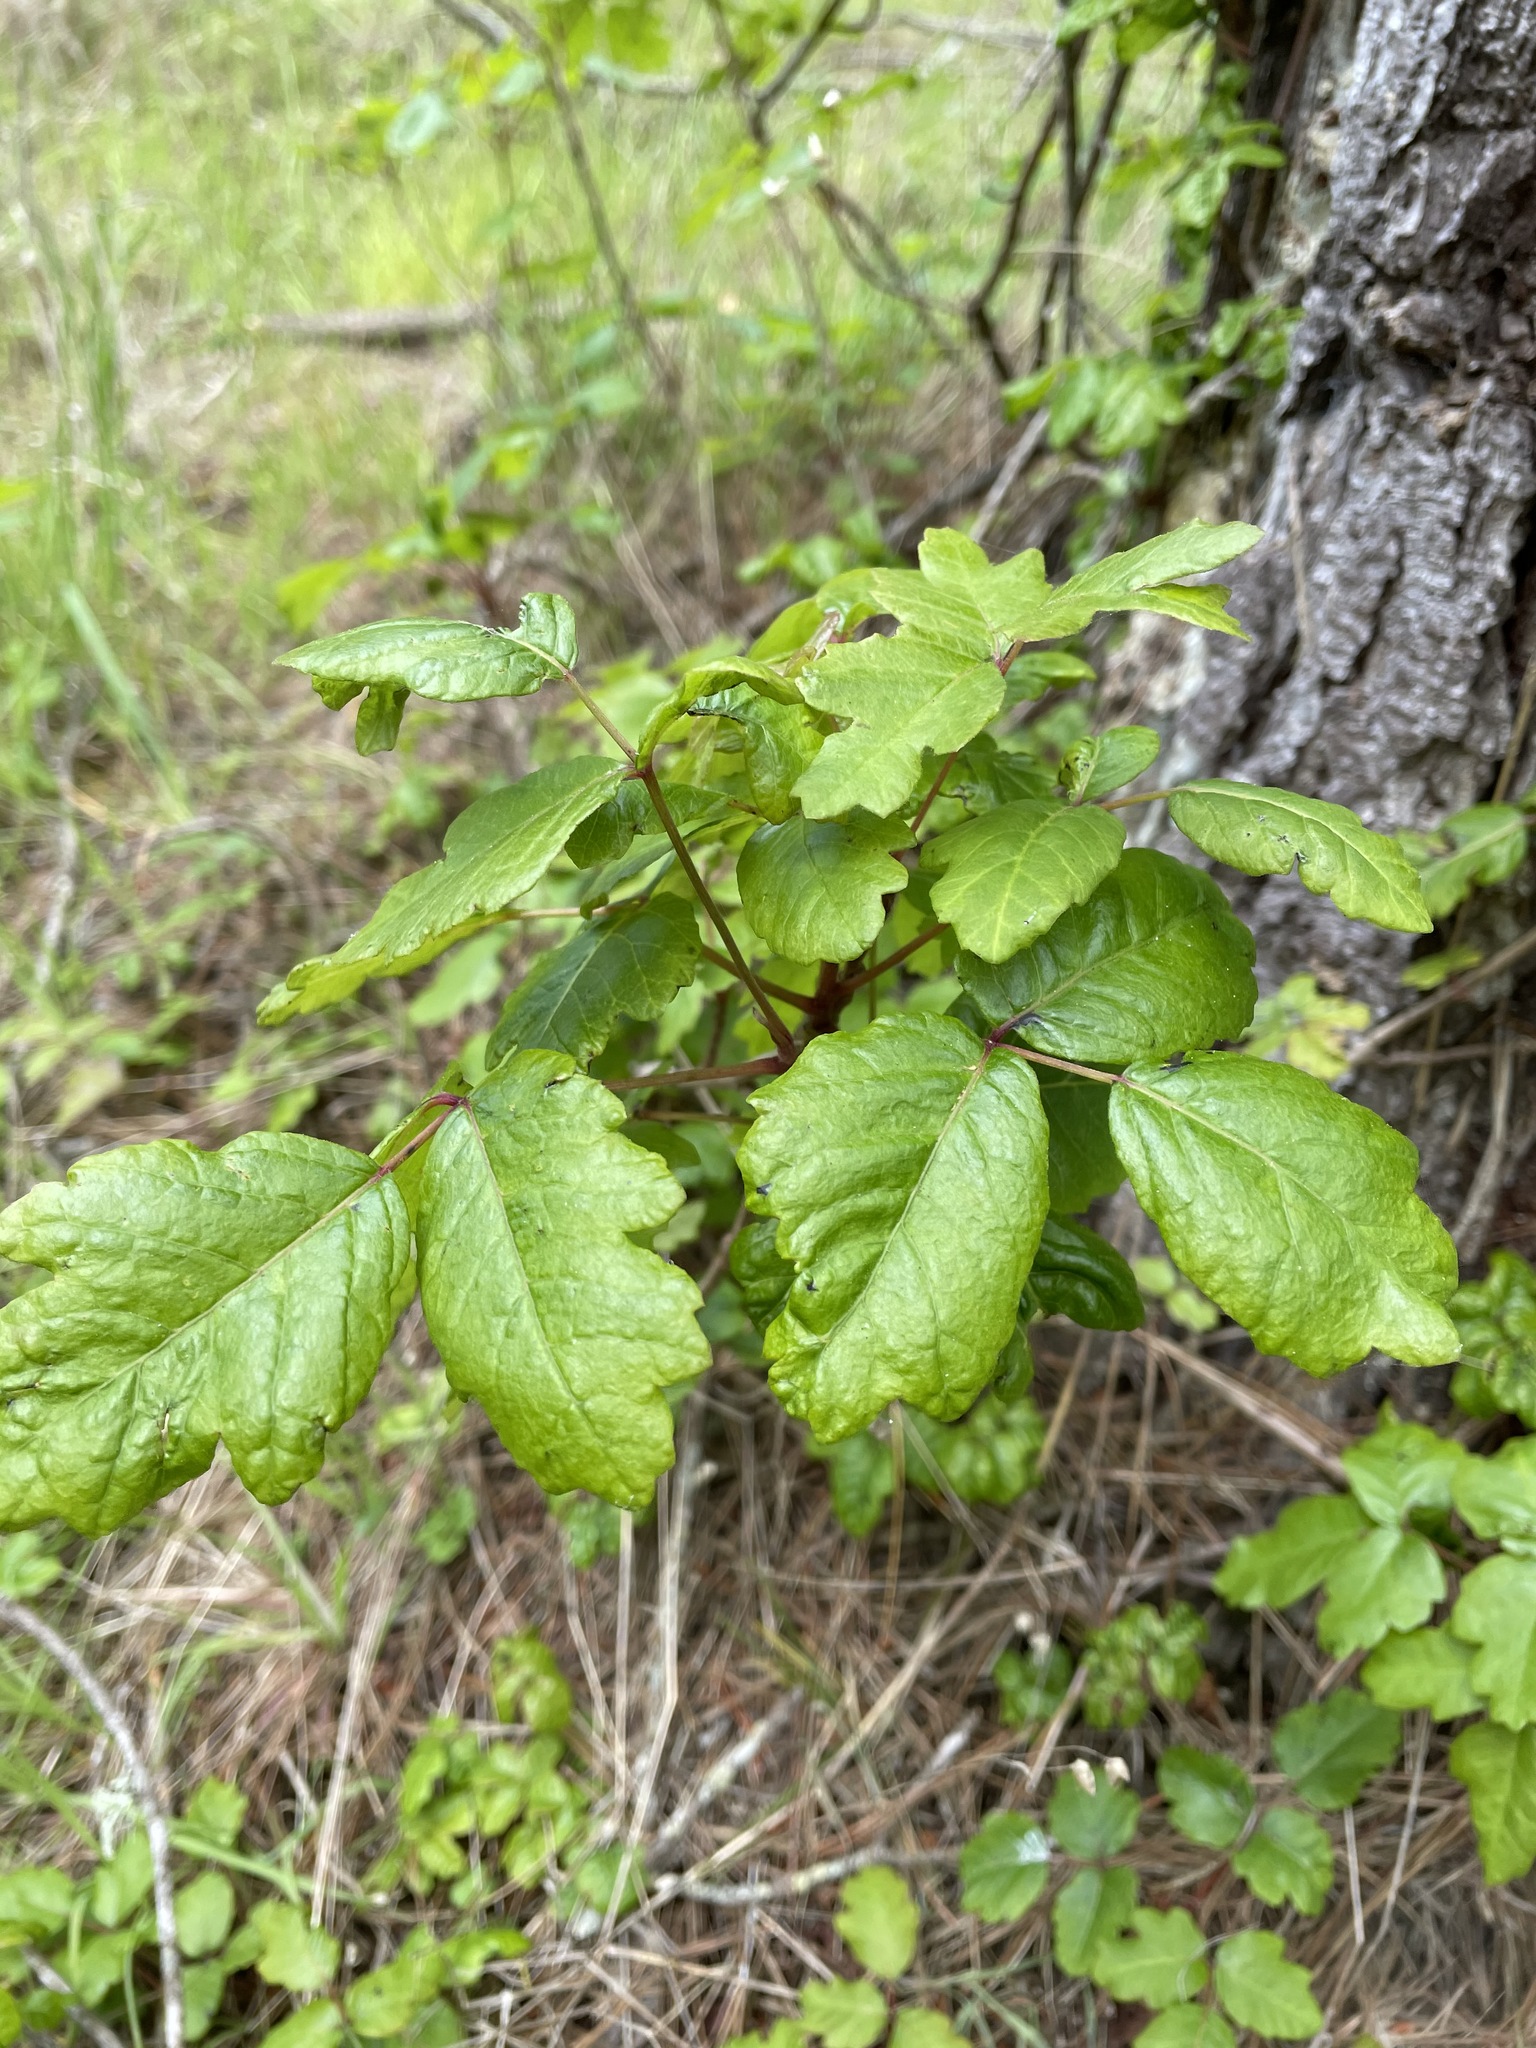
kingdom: Plantae
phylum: Tracheophyta
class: Magnoliopsida
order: Sapindales
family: Anacardiaceae
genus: Toxicodendron
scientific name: Toxicodendron diversilobum
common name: Pacific poison-oak
